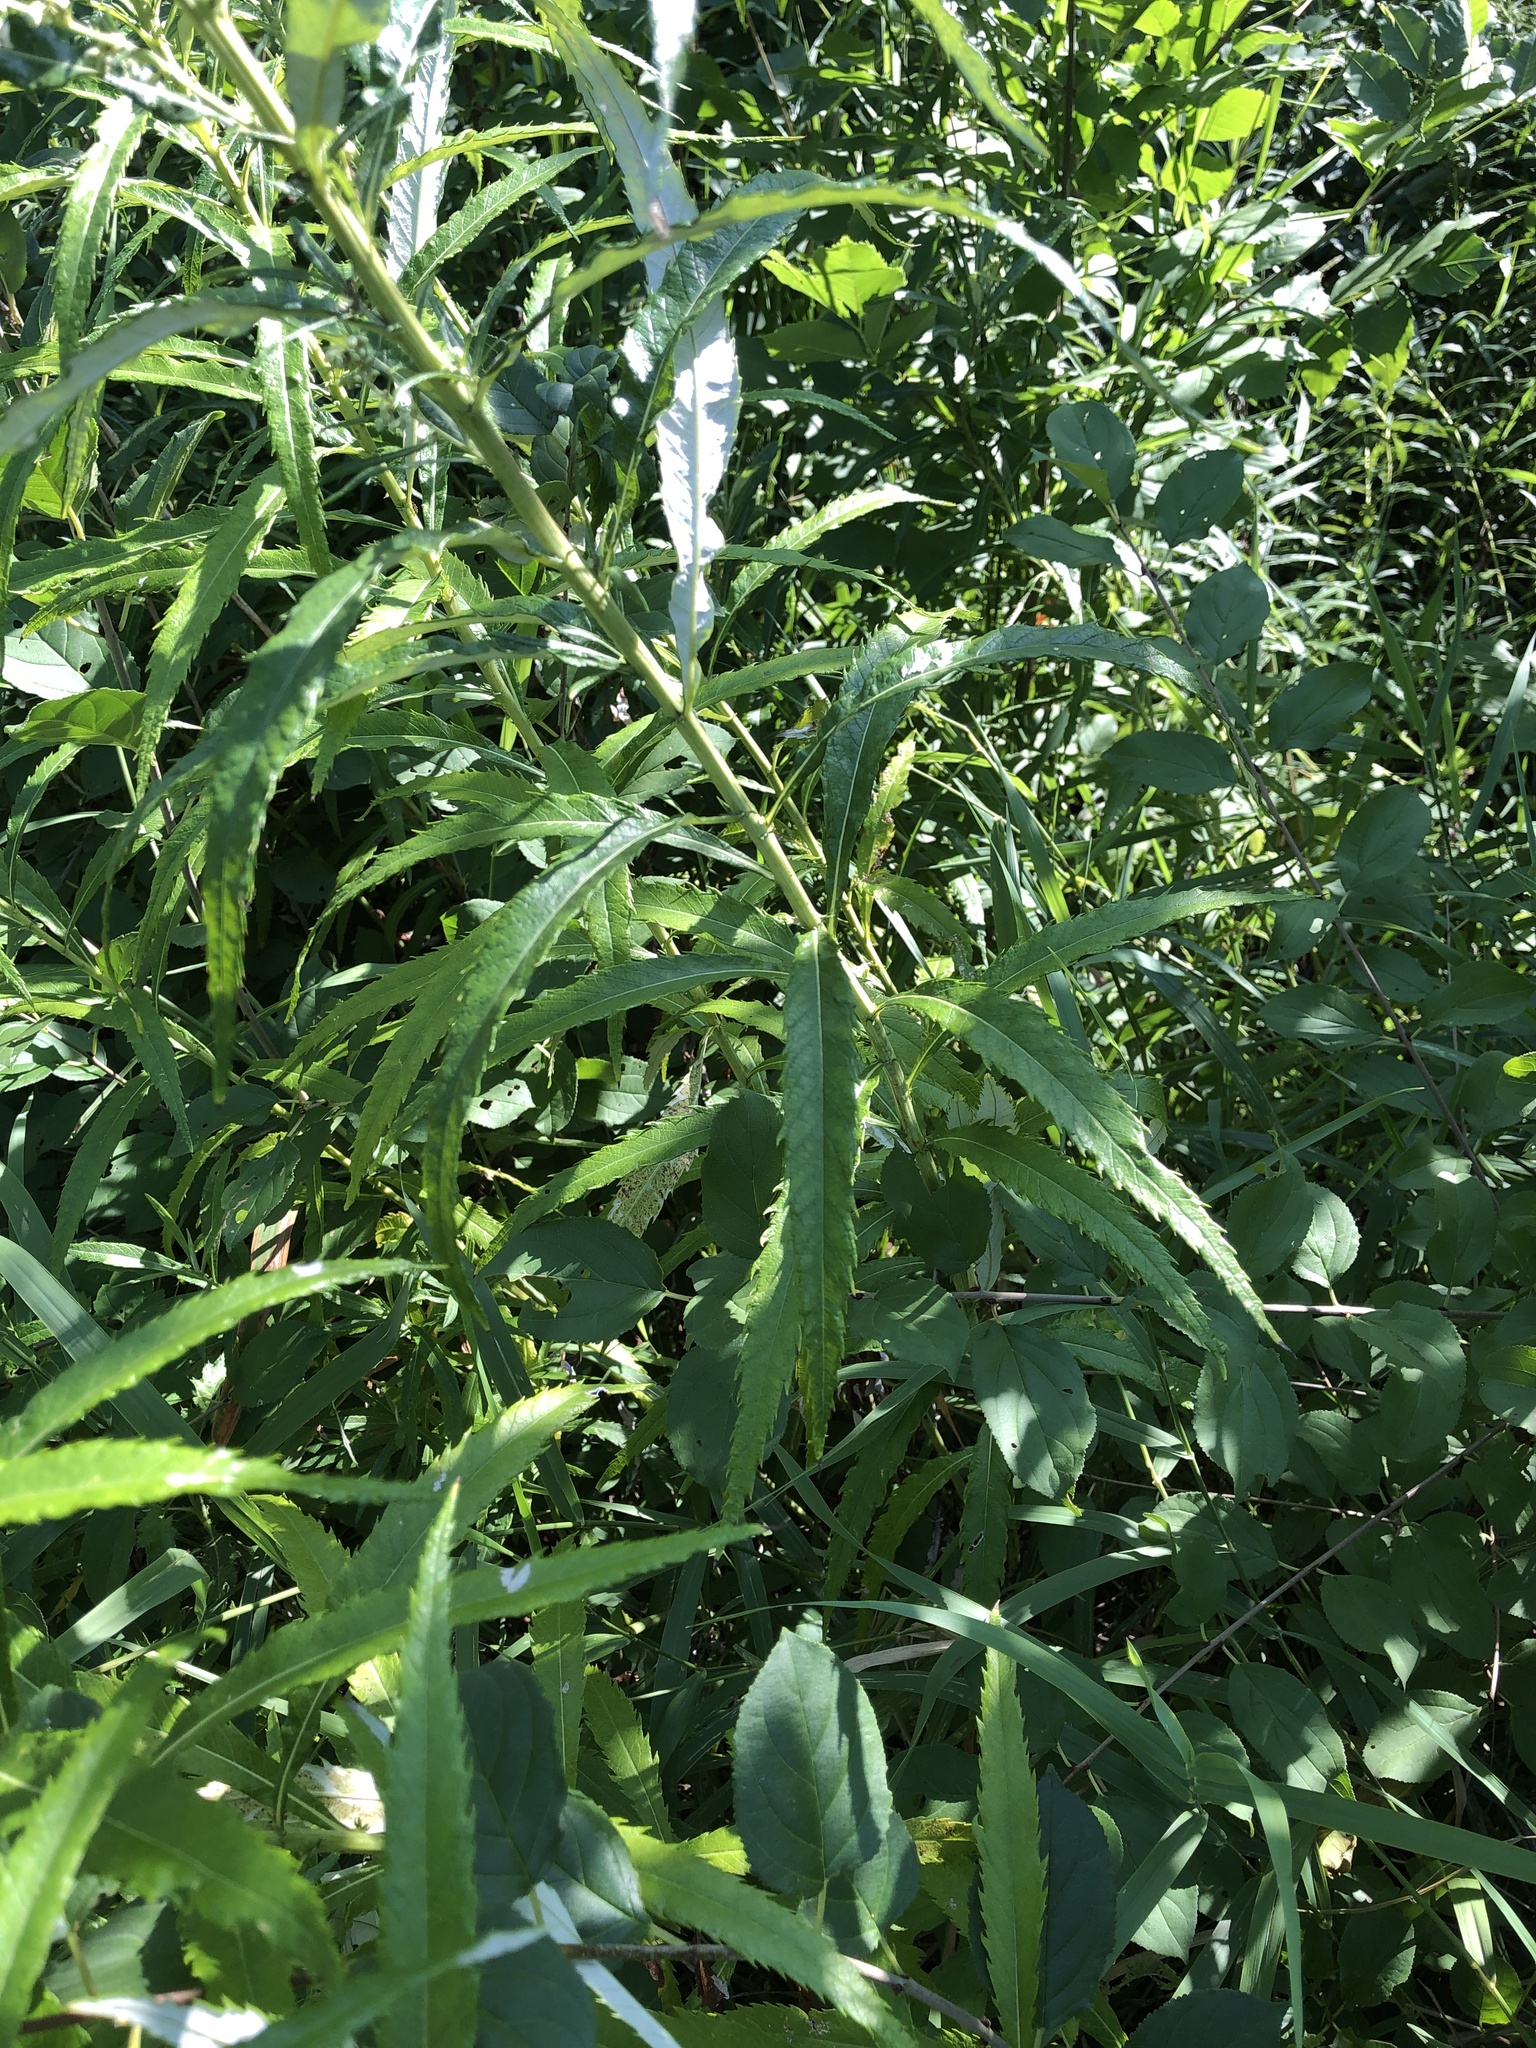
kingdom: Plantae
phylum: Tracheophyta
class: Magnoliopsida
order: Asterales
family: Asteraceae
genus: Artemisia
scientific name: Artemisia serrata
